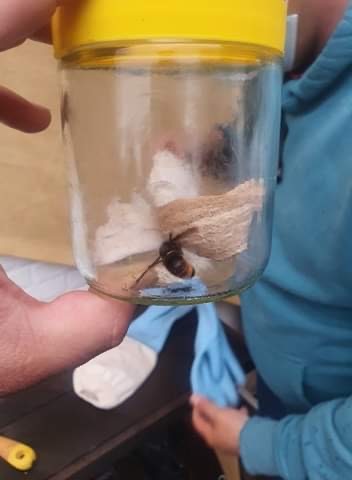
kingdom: Animalia
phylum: Arthropoda
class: Insecta
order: Hymenoptera
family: Vespidae
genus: Vespa
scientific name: Vespa velutina
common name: Asian hornet
